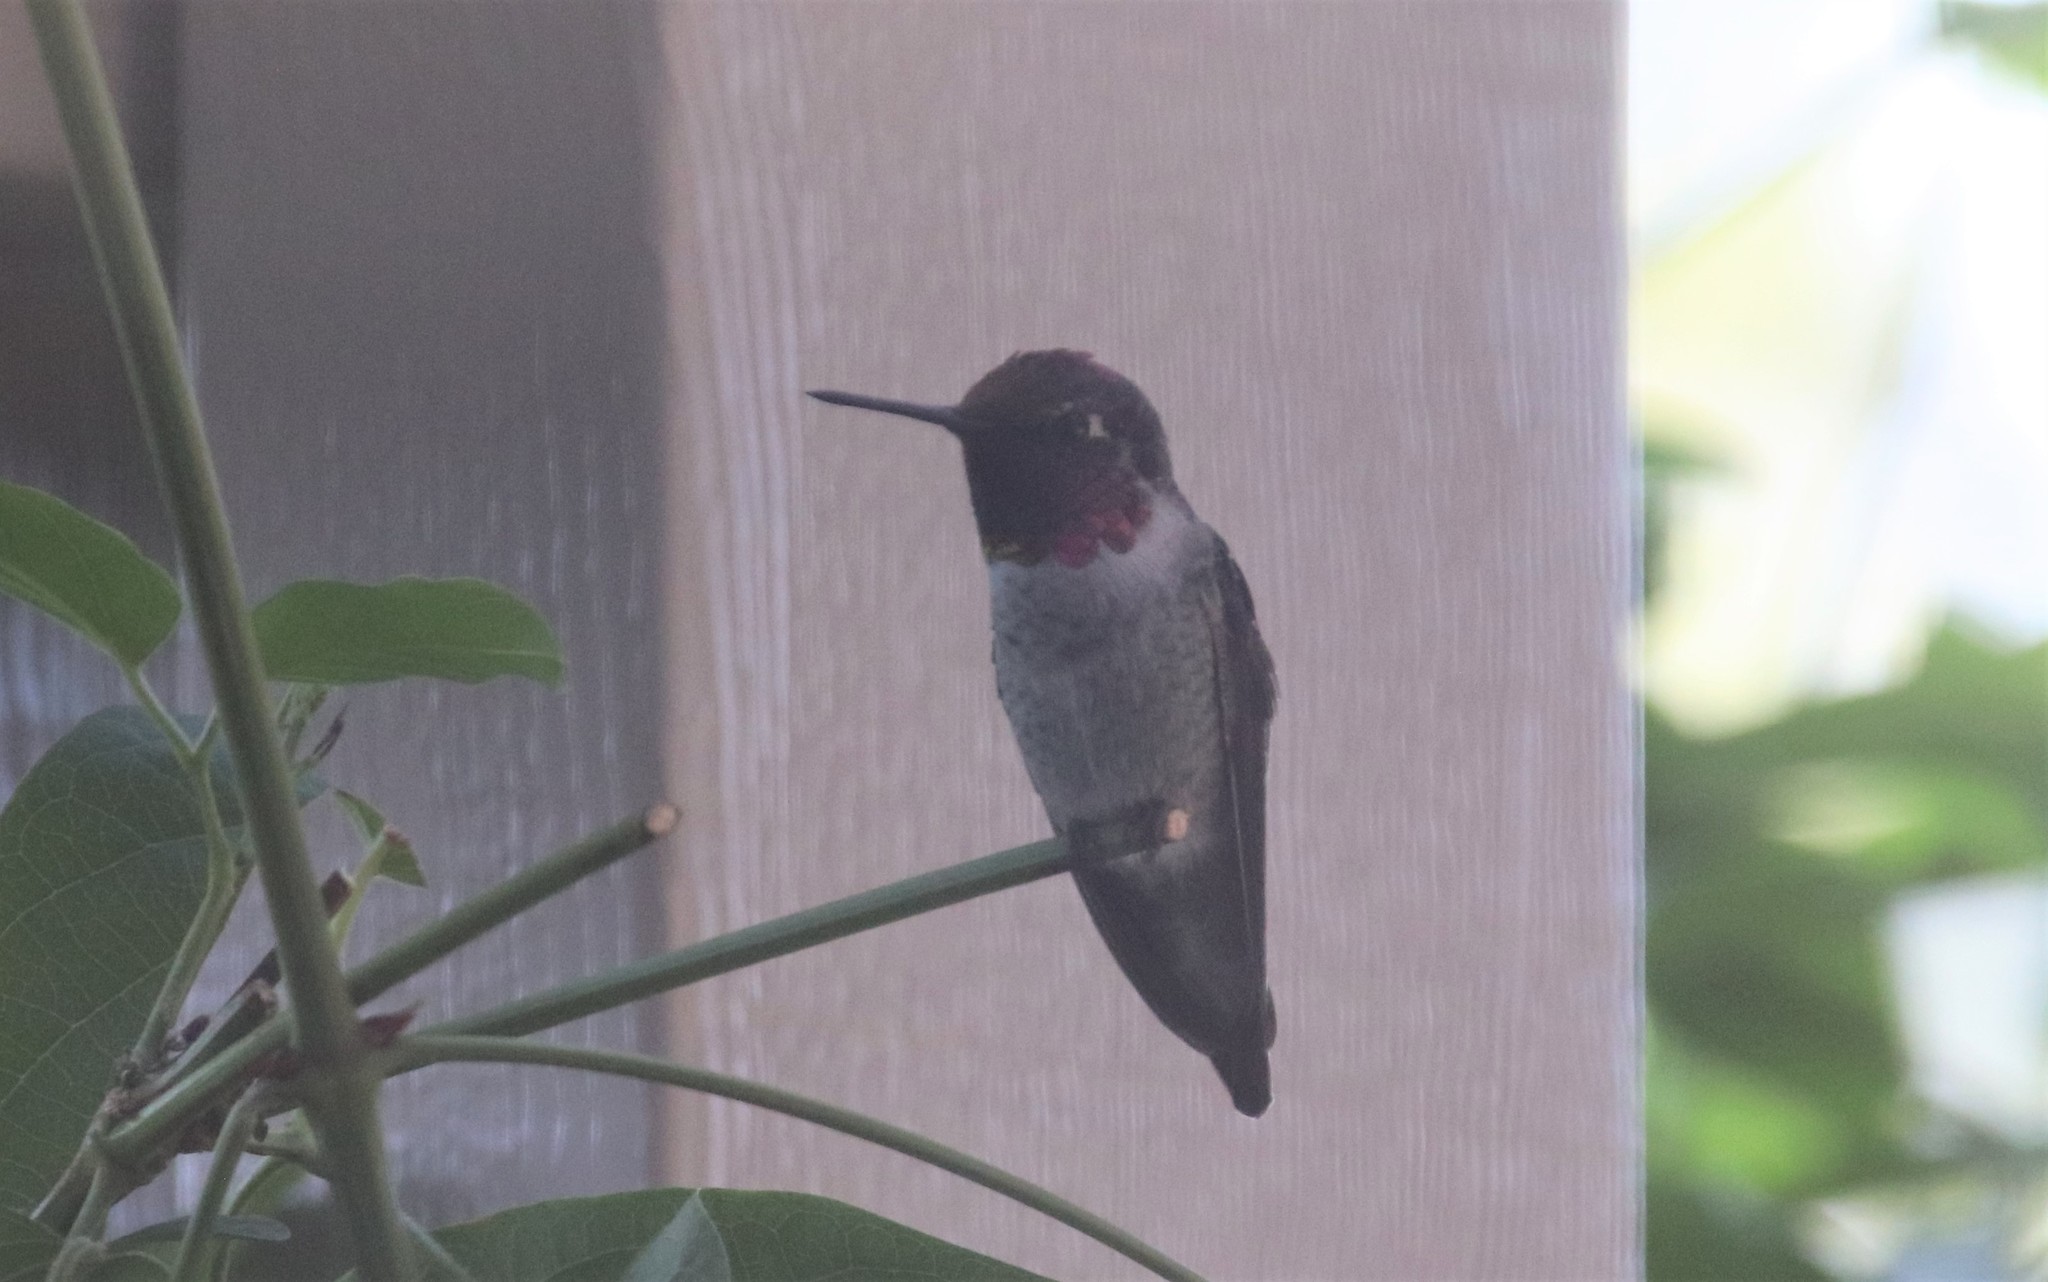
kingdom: Animalia
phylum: Chordata
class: Aves
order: Apodiformes
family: Trochilidae
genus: Calypte
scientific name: Calypte anna
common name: Anna's hummingbird
